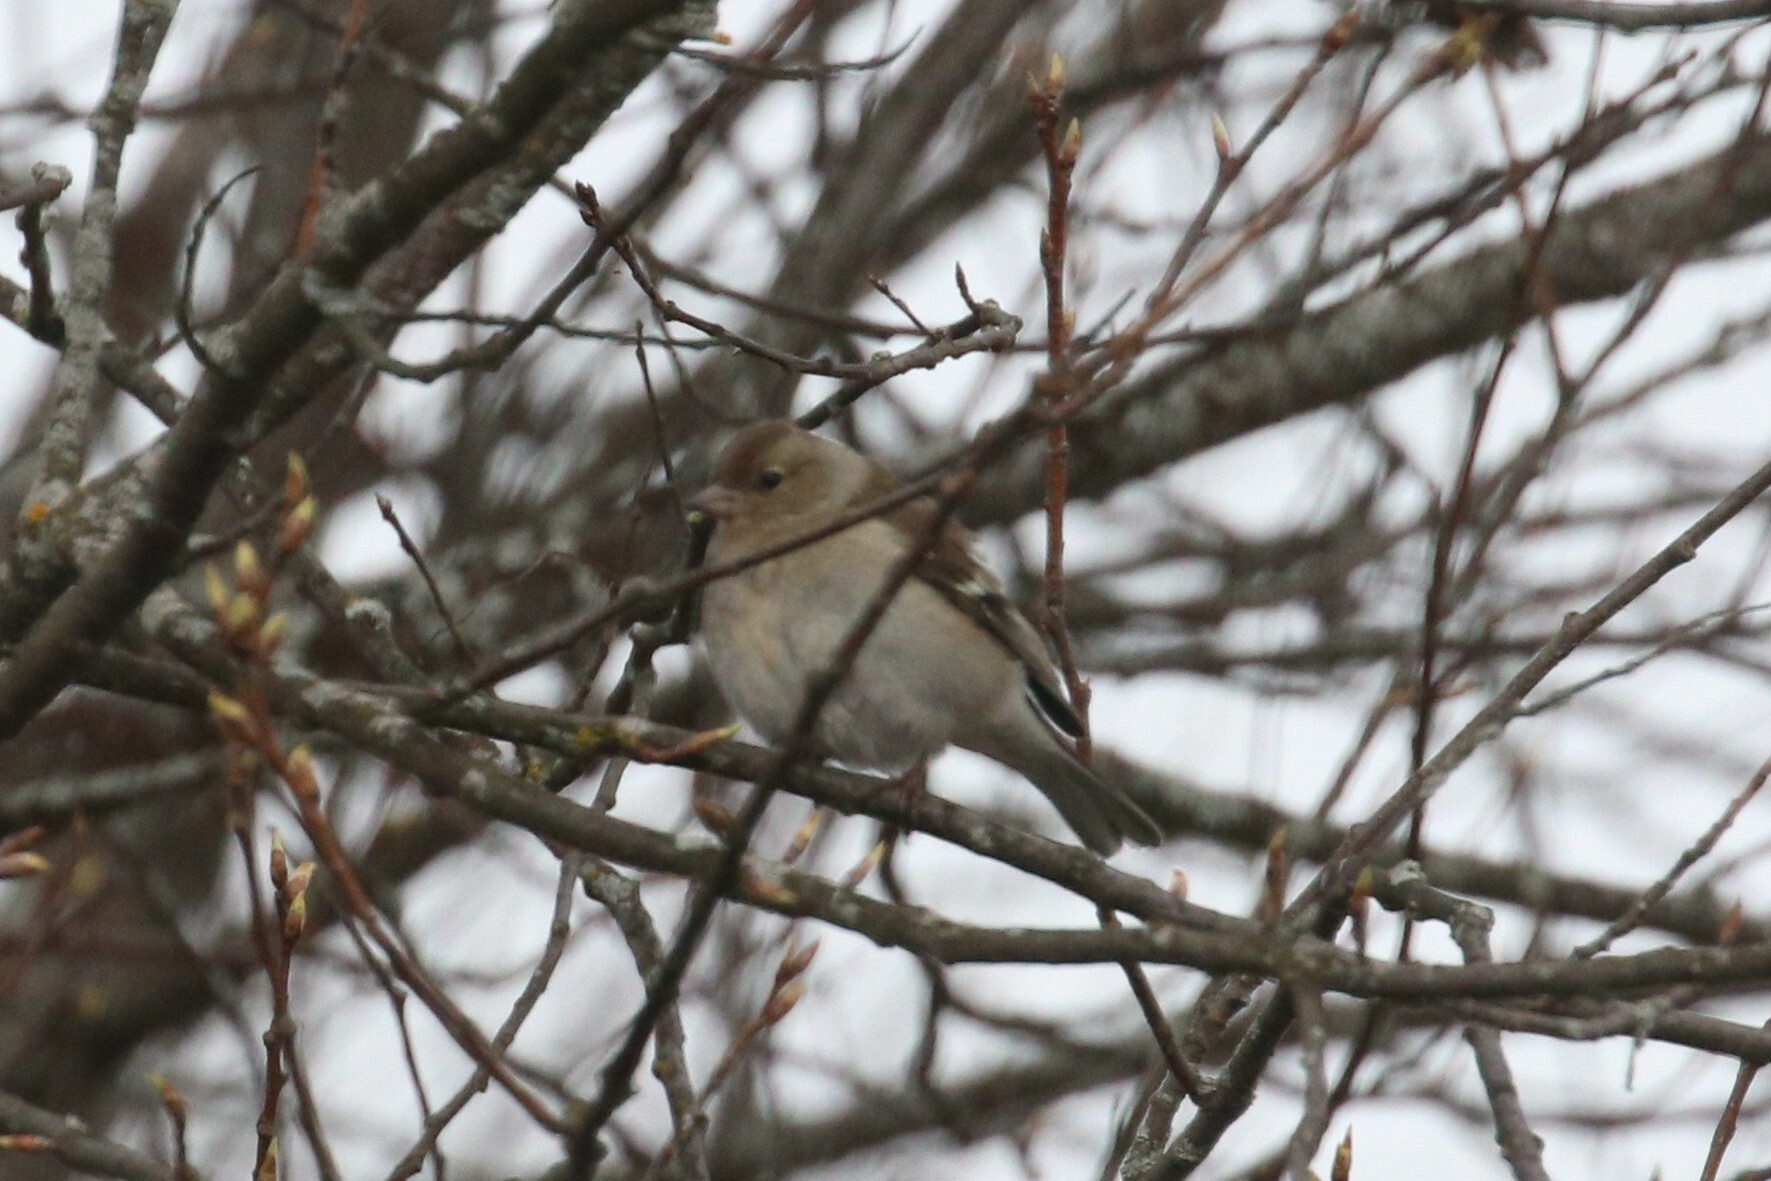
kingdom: Animalia
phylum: Chordata
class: Aves
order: Passeriformes
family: Fringillidae
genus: Fringilla
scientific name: Fringilla coelebs
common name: Common chaffinch
